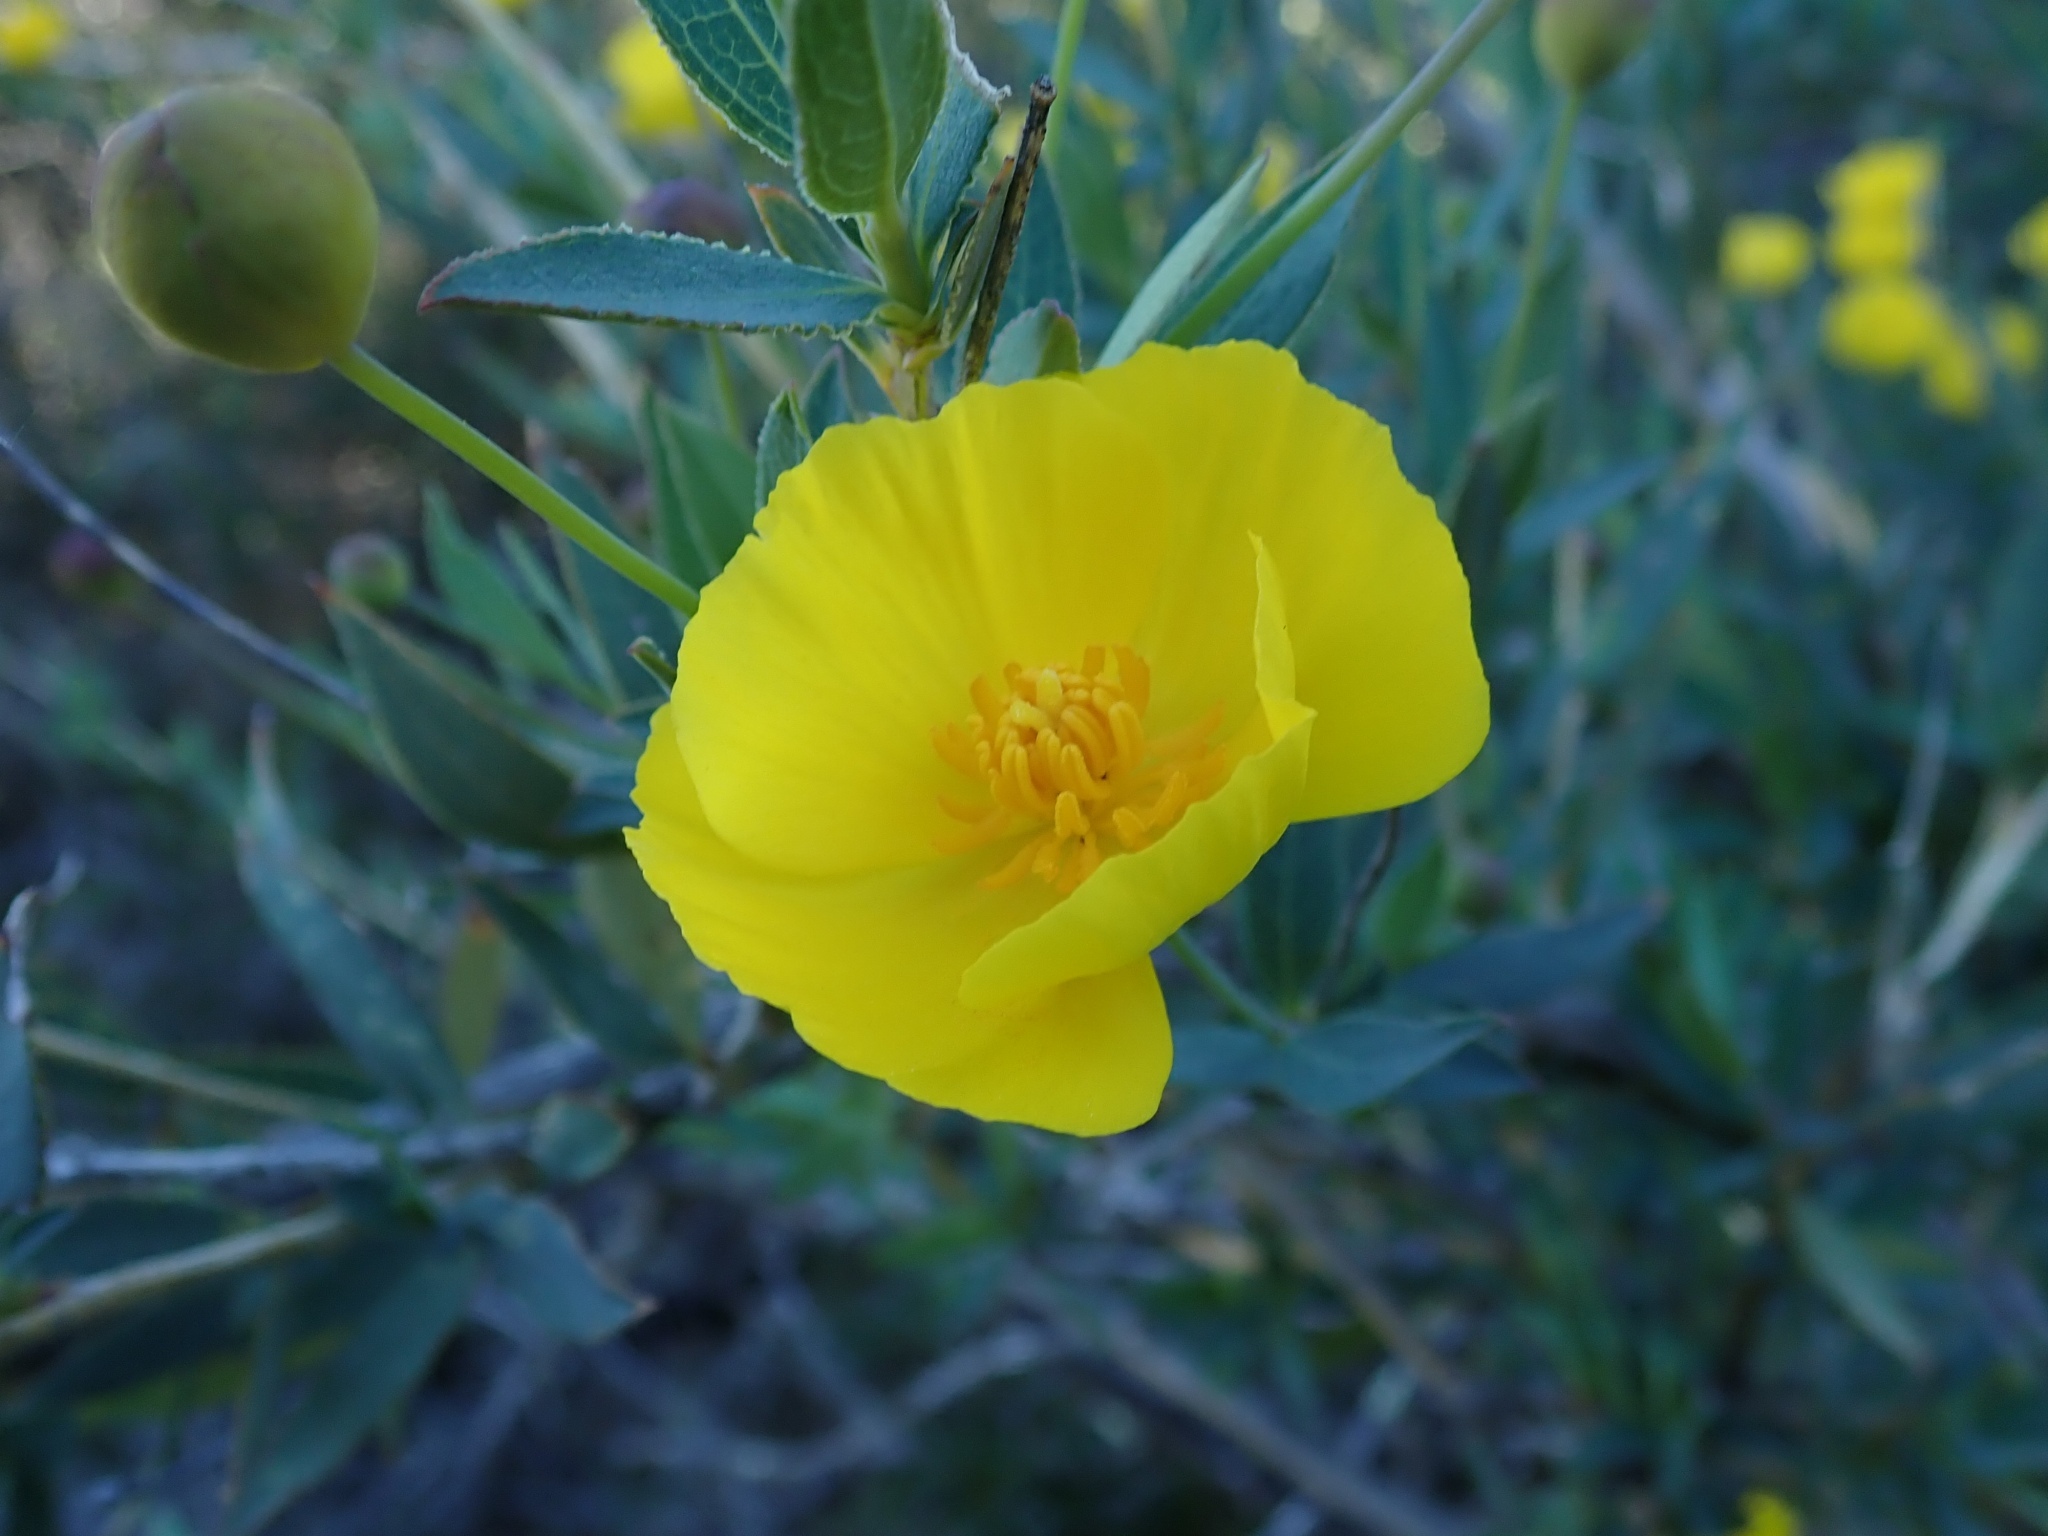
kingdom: Plantae
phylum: Tracheophyta
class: Magnoliopsida
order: Ranunculales
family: Papaveraceae
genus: Dendromecon
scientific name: Dendromecon rigida
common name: Tree poppy
